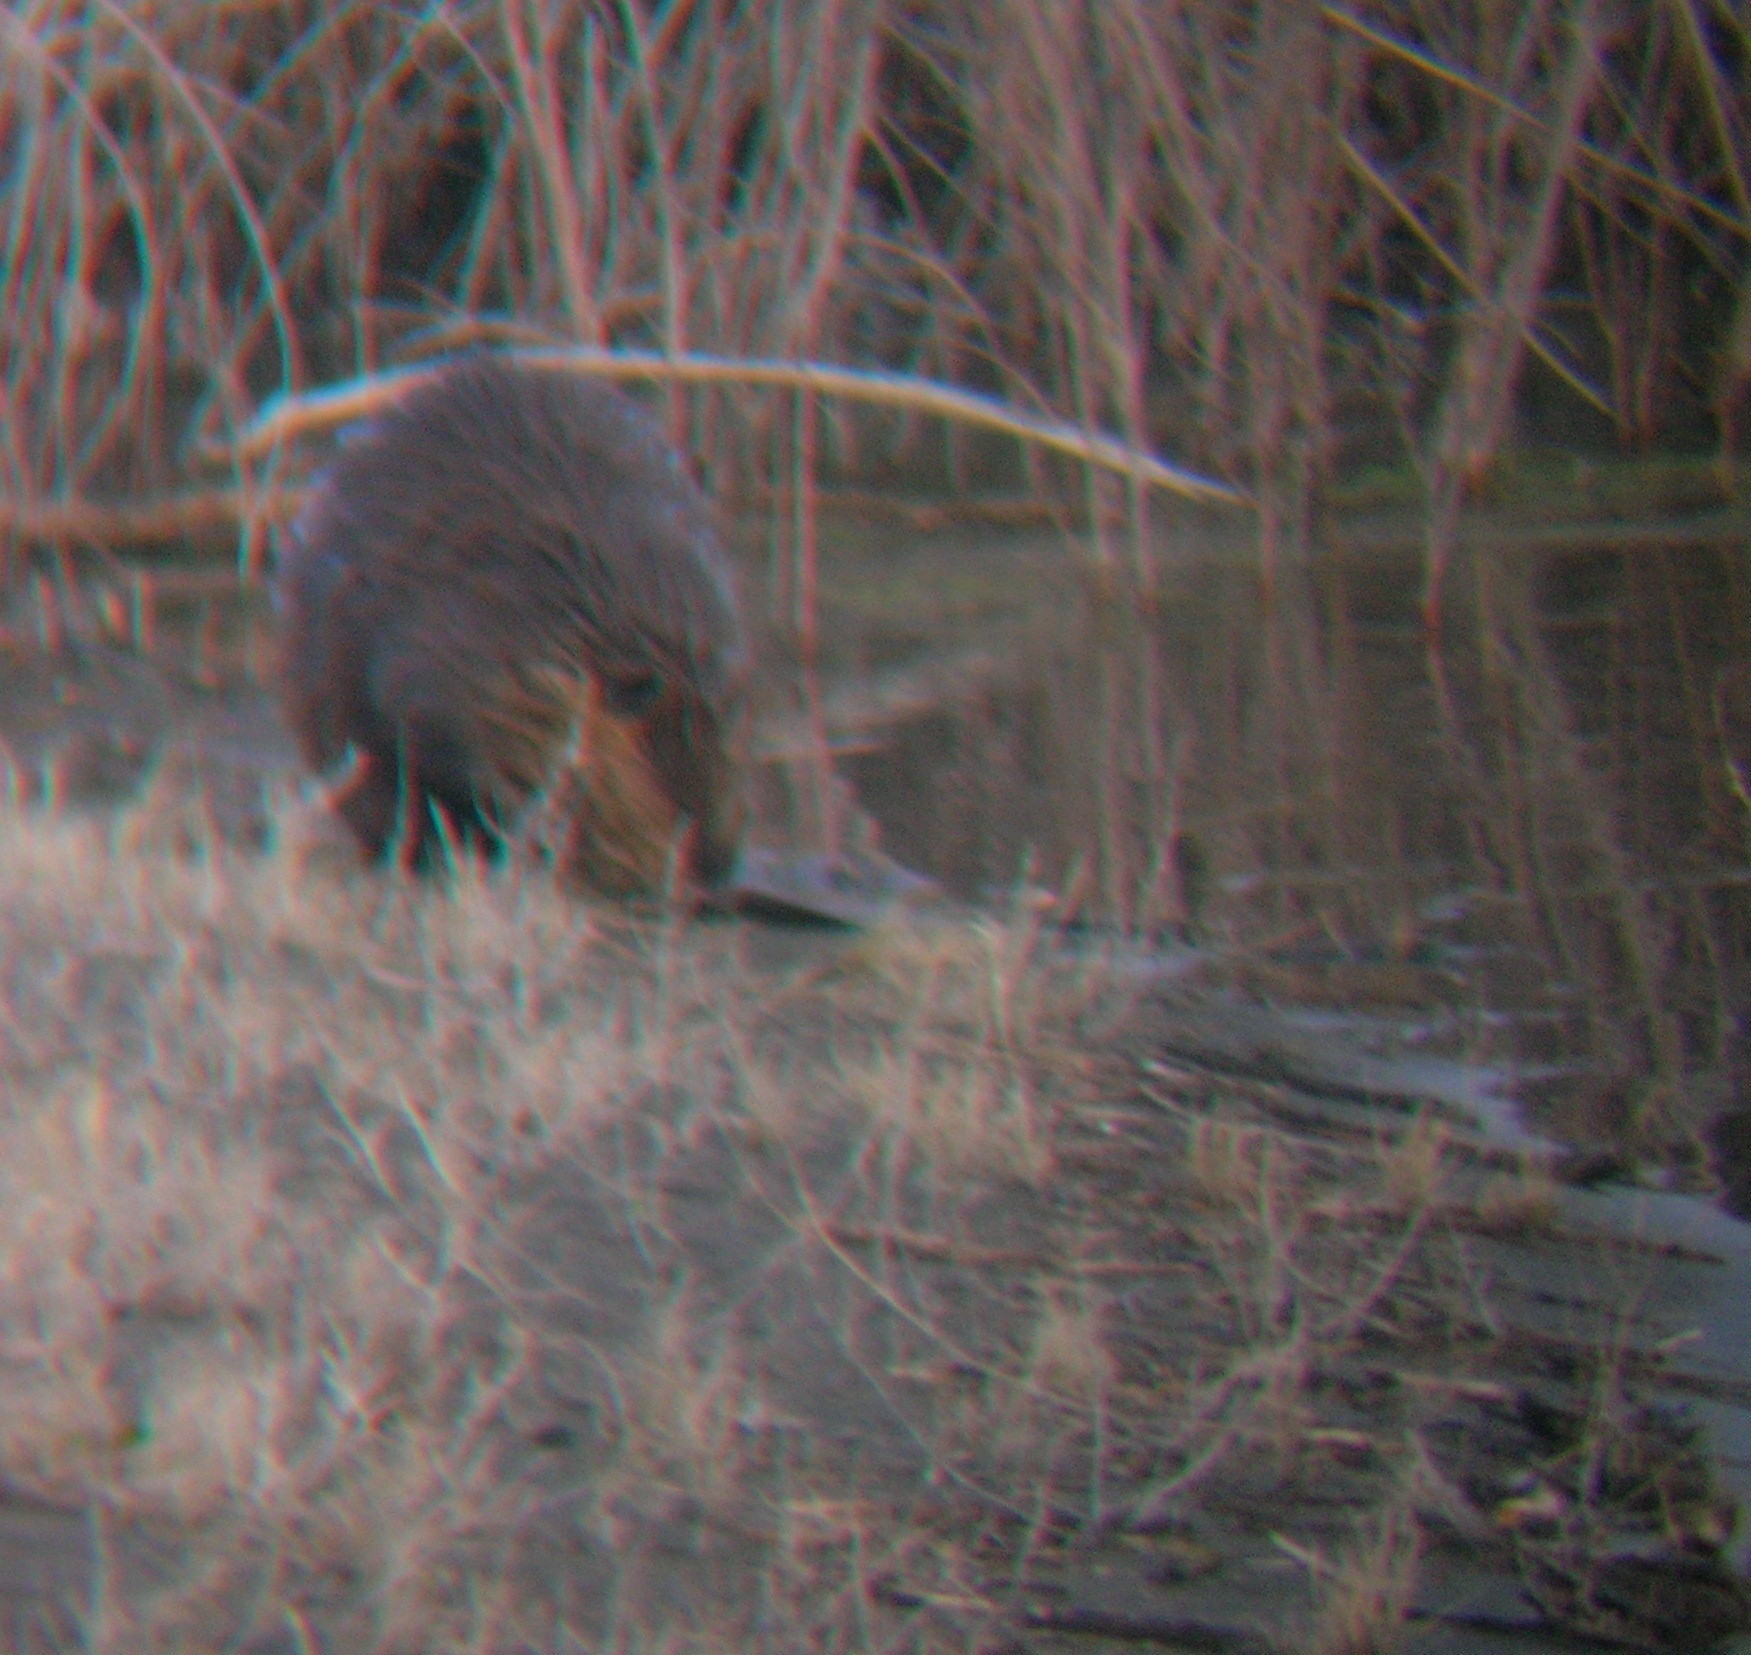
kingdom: Animalia
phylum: Chordata
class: Mammalia
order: Rodentia
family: Castoridae
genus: Castor
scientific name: Castor canadensis
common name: American beaver
